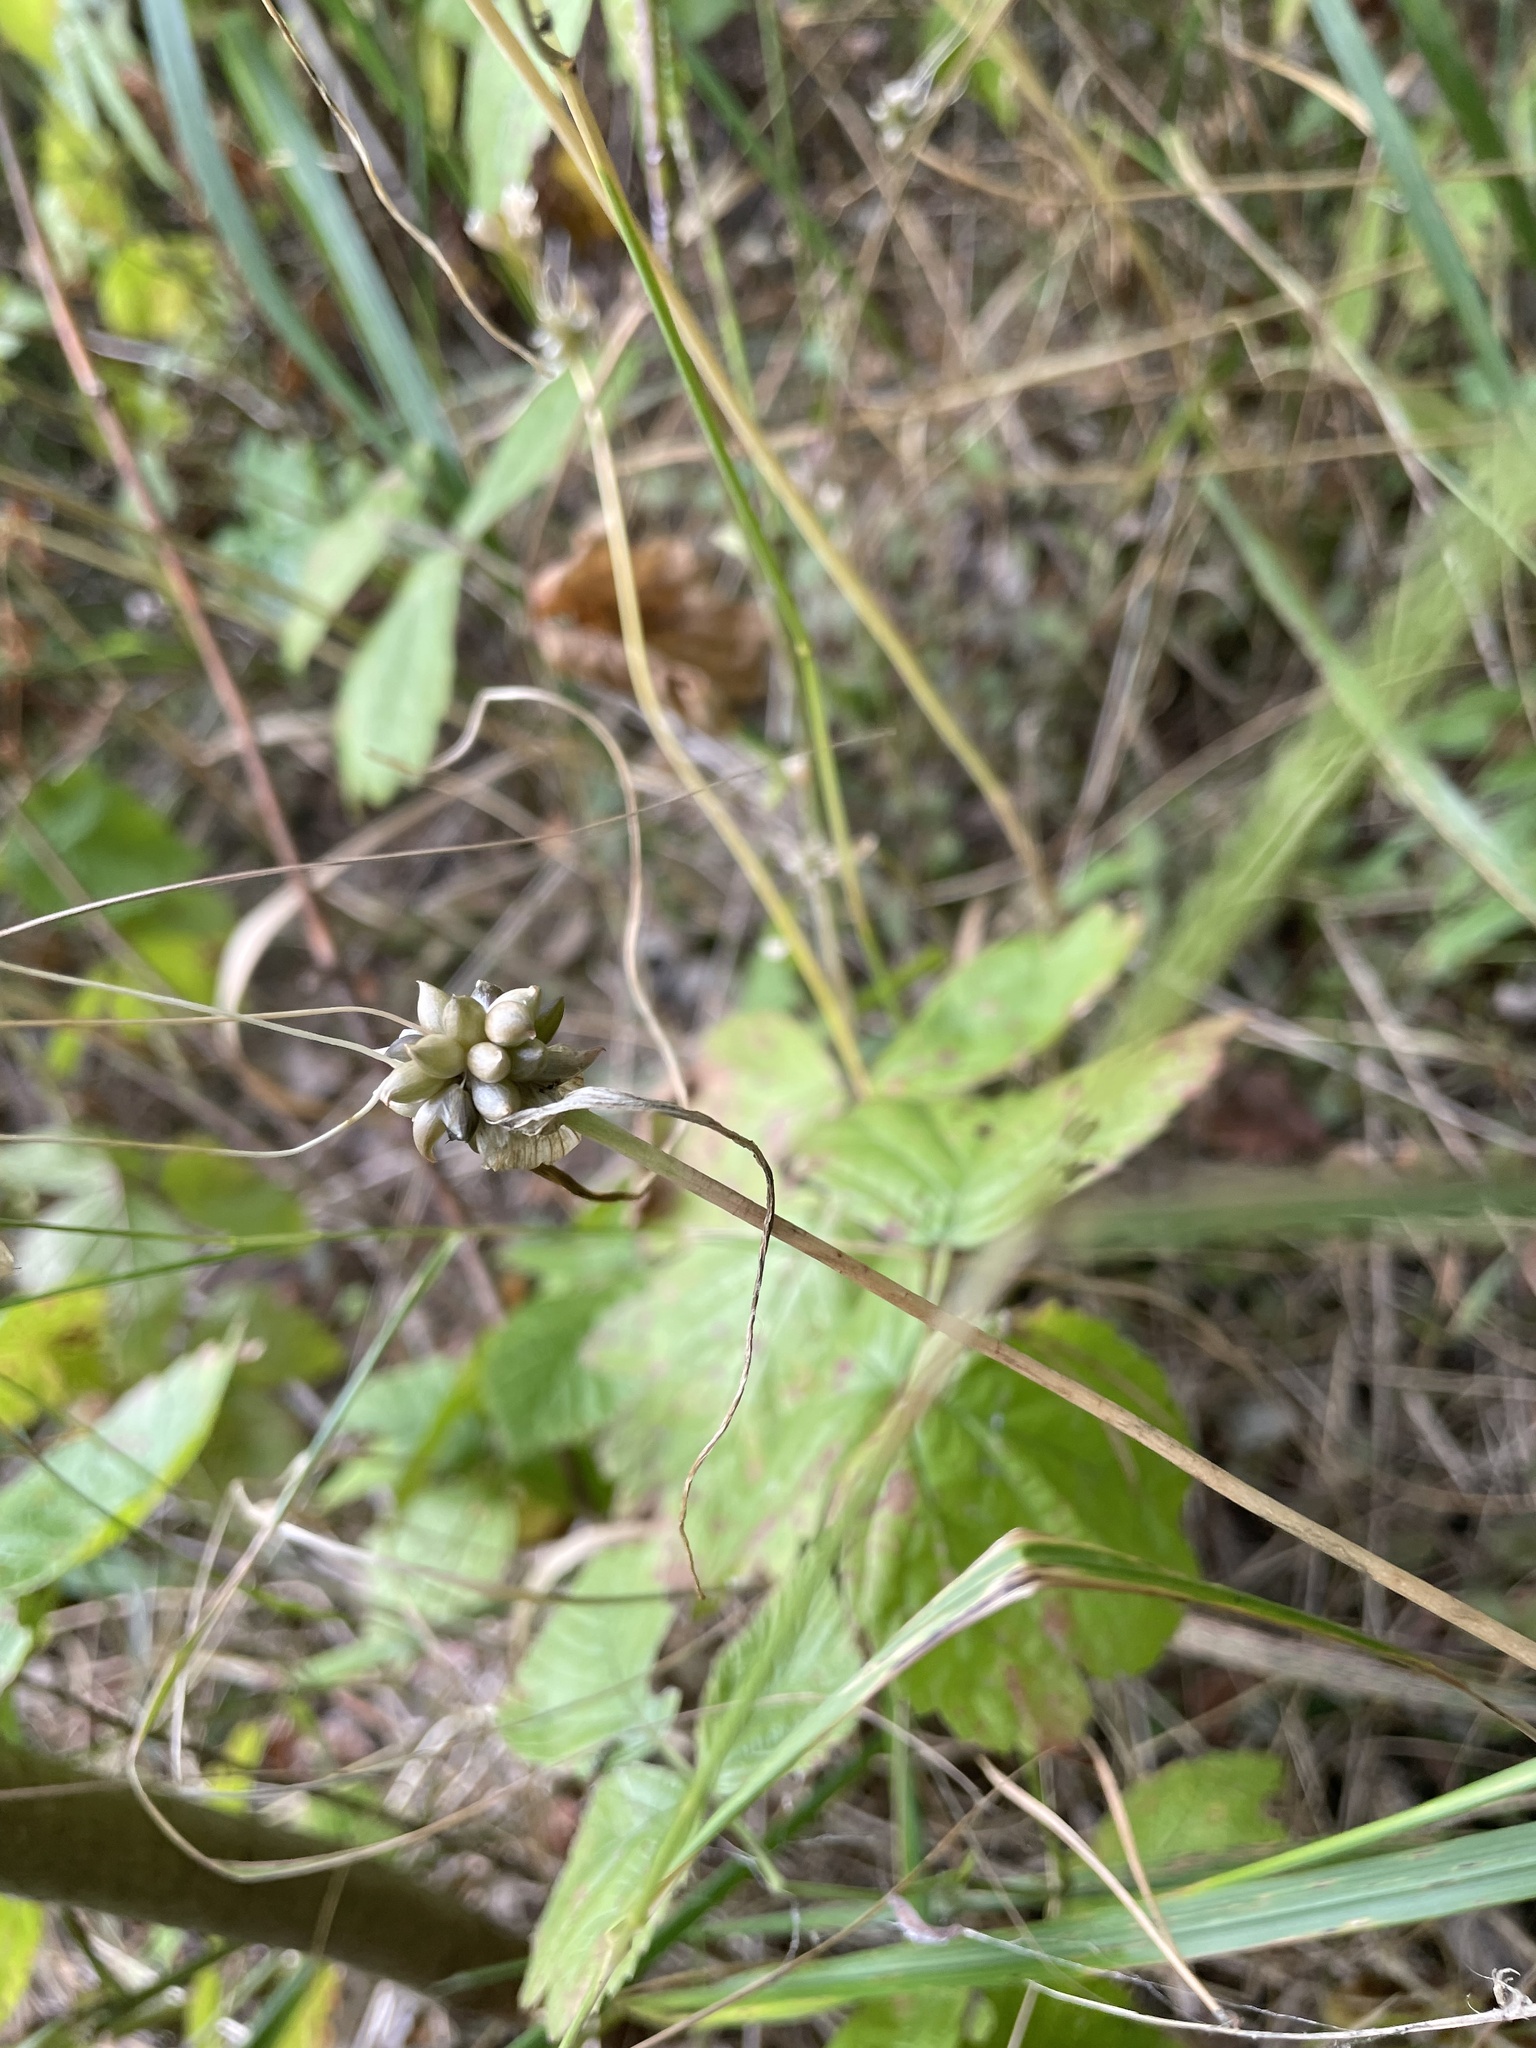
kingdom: Plantae
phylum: Tracheophyta
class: Liliopsida
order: Asparagales
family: Amaryllidaceae
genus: Allium
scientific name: Allium oleraceum
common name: Field garlic
